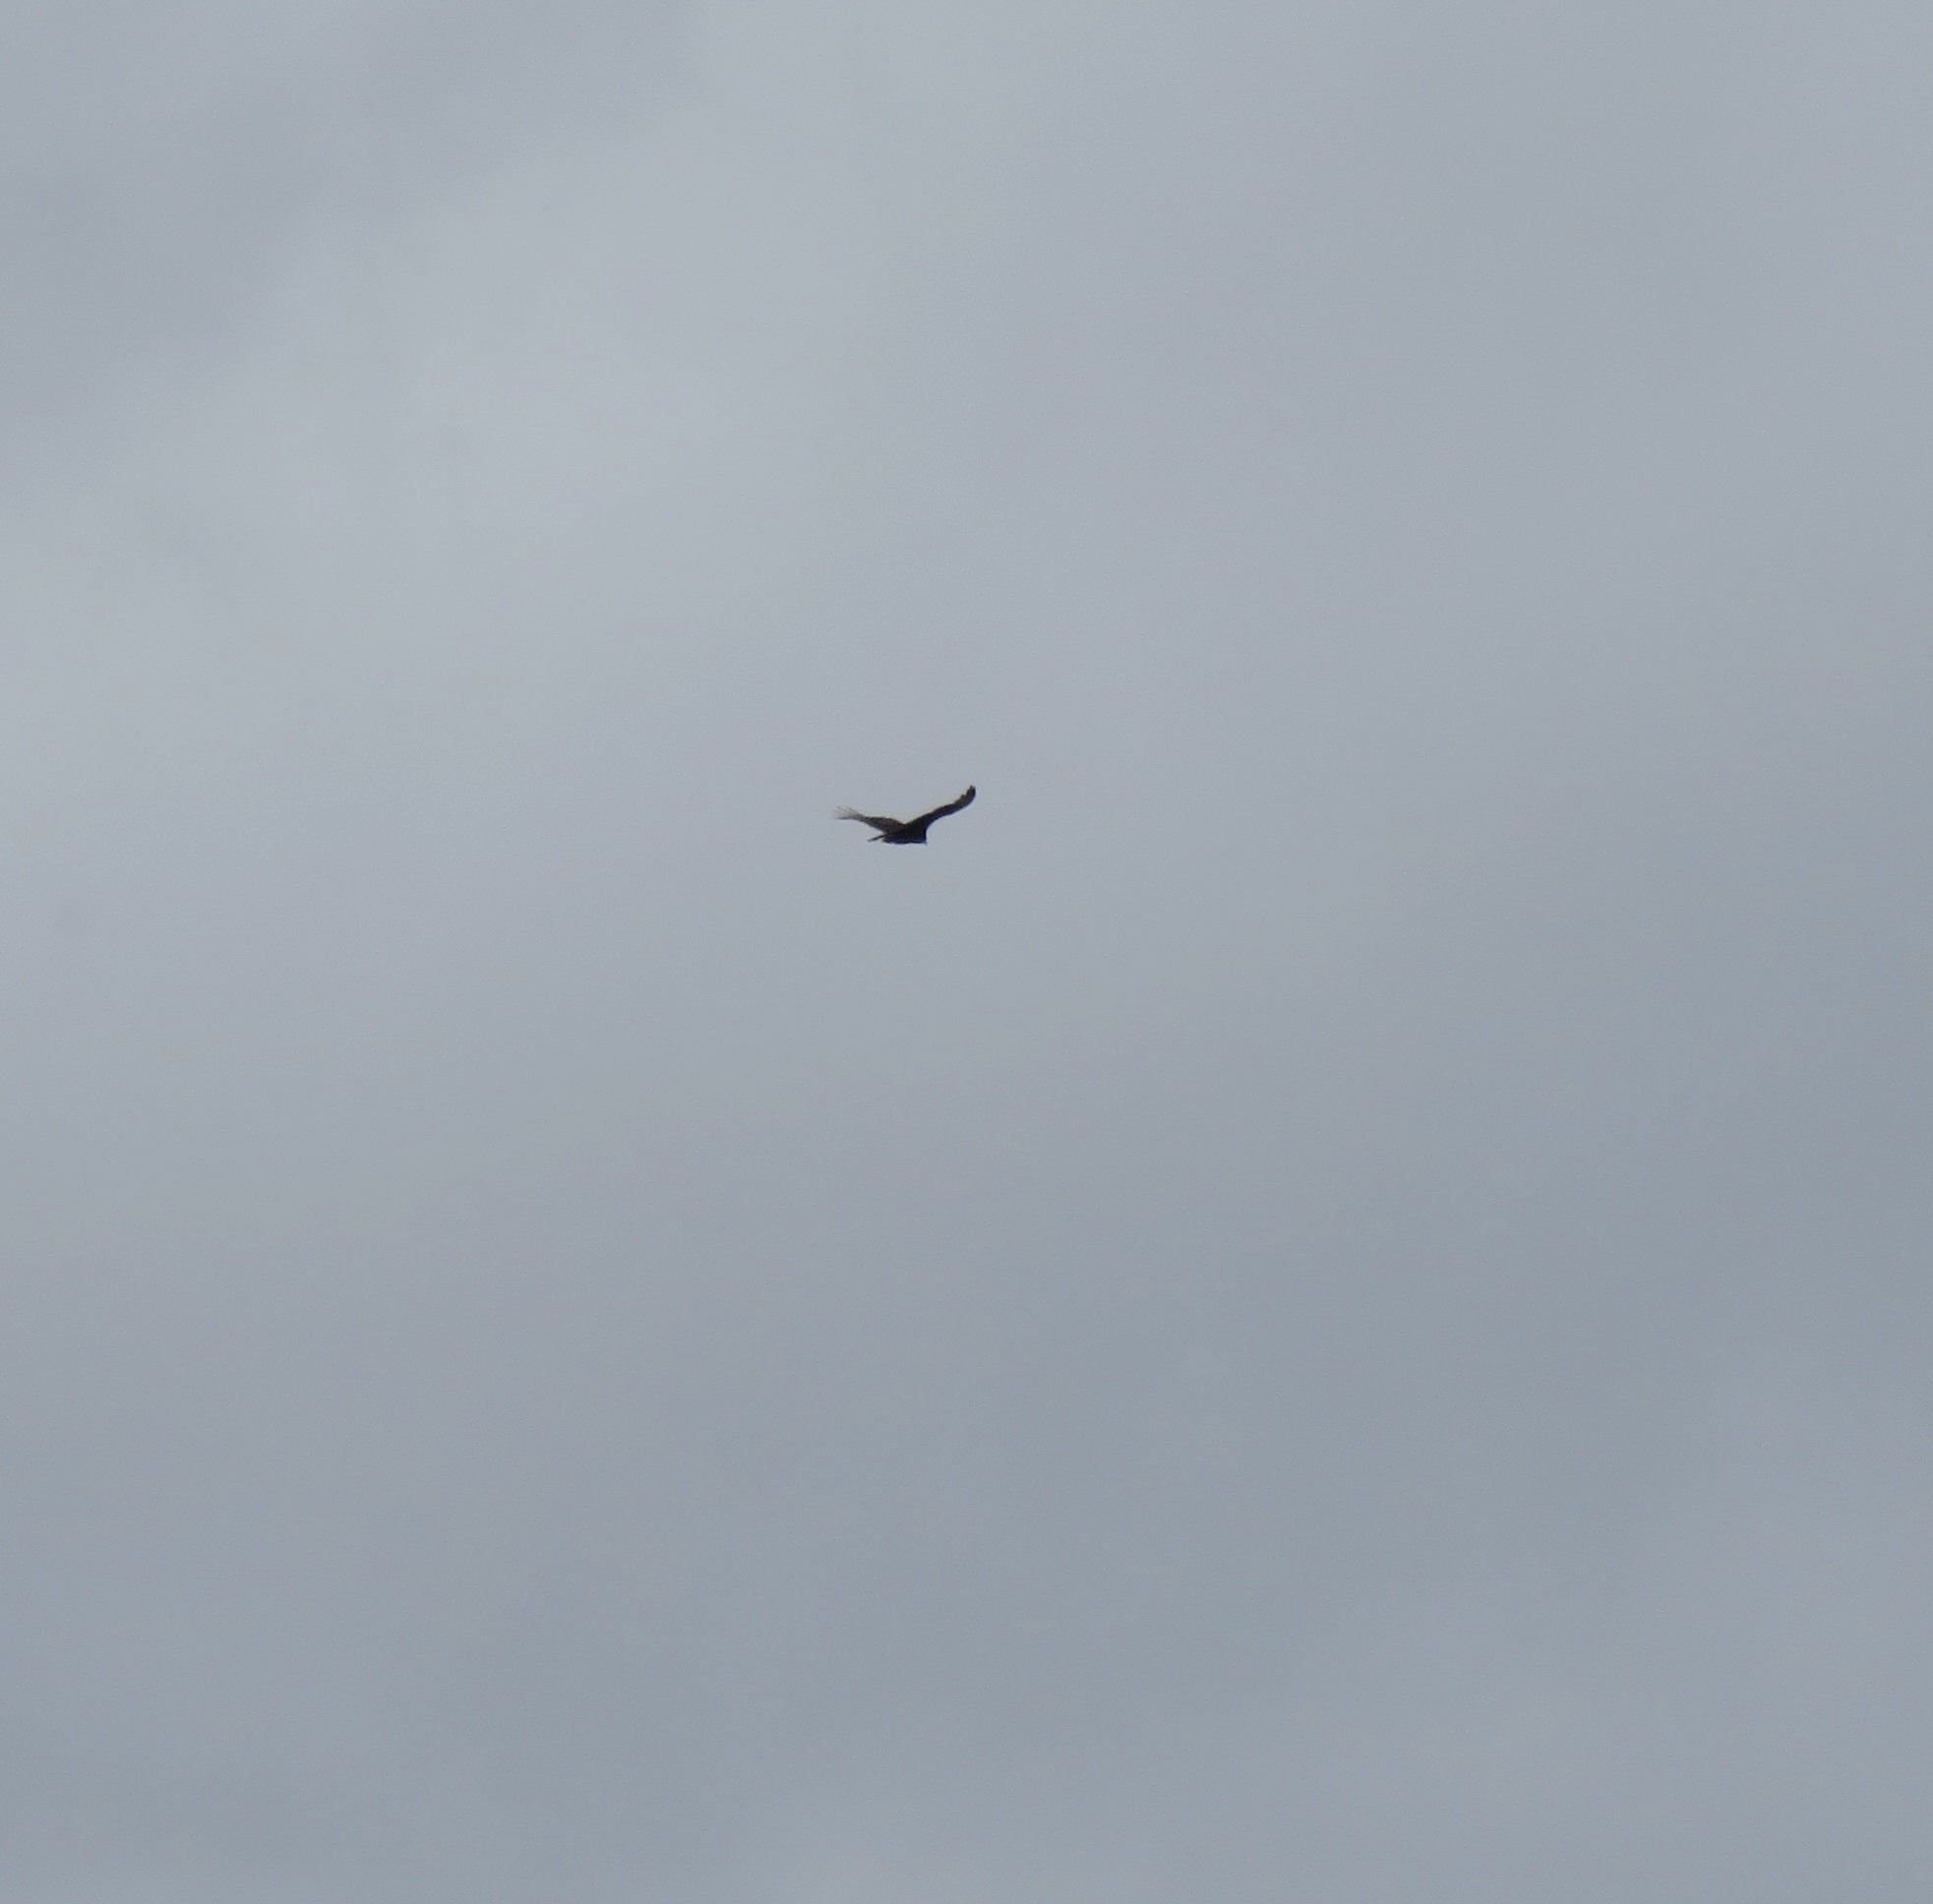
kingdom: Animalia
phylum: Chordata
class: Aves
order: Accipitriformes
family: Cathartidae
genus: Cathartes
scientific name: Cathartes aura
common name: Turkey vulture
